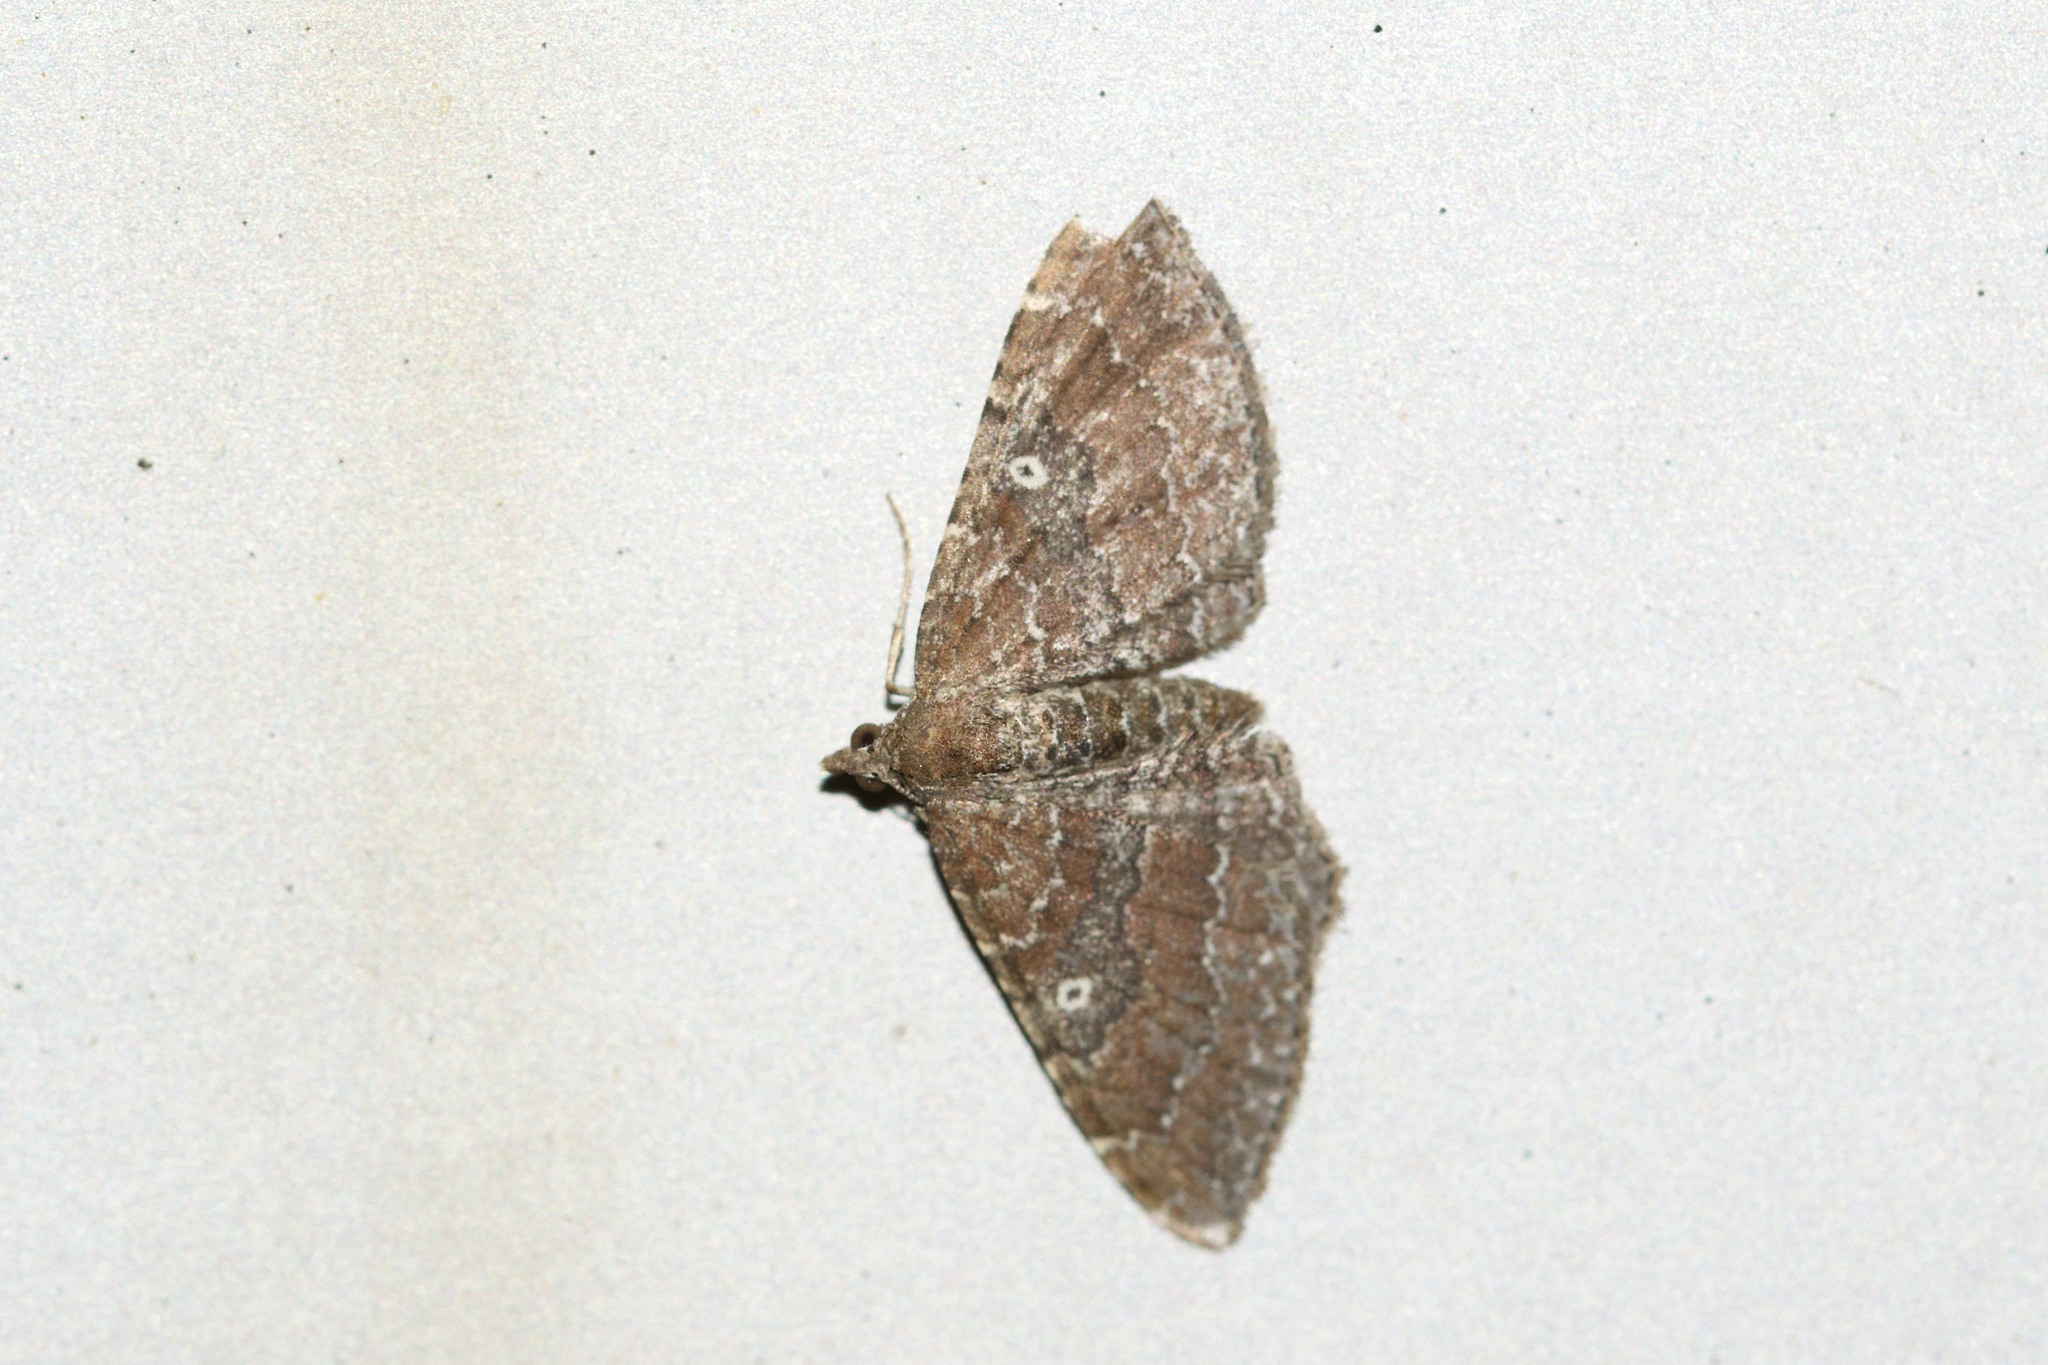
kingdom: Animalia
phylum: Arthropoda
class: Insecta
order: Lepidoptera
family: Geometridae
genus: Orthonama
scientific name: Orthonama obstipata
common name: The gem
